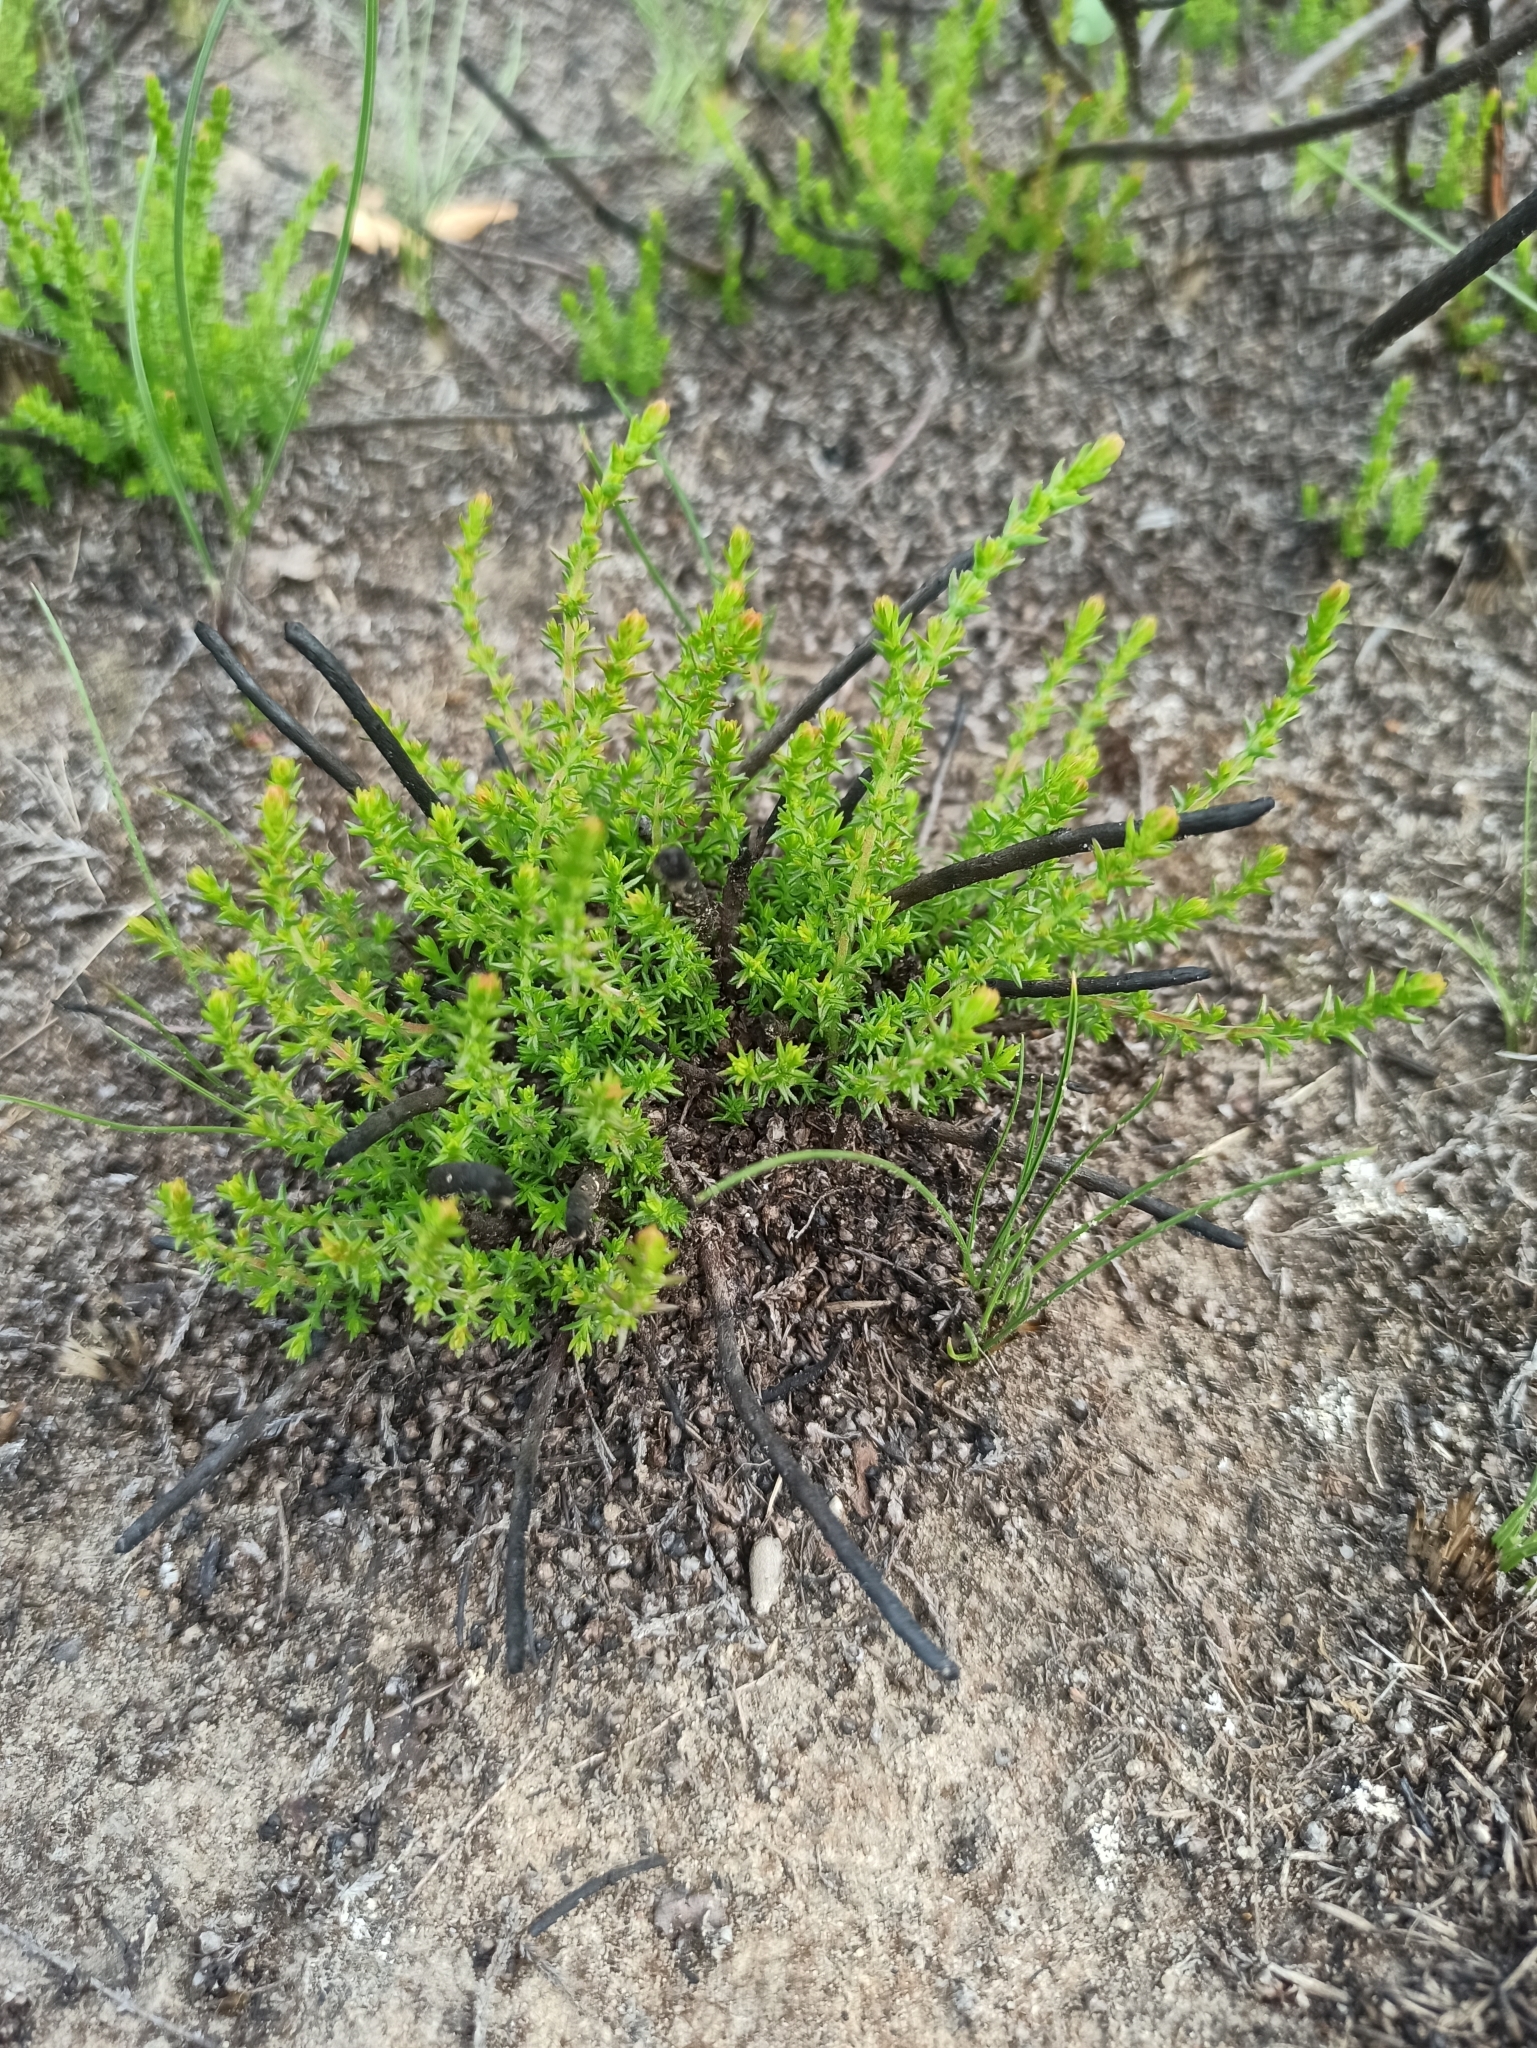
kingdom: Plantae
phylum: Tracheophyta
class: Magnoliopsida
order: Ericales
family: Ericaceae
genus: Calluna
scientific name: Calluna vulgaris
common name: Heather
